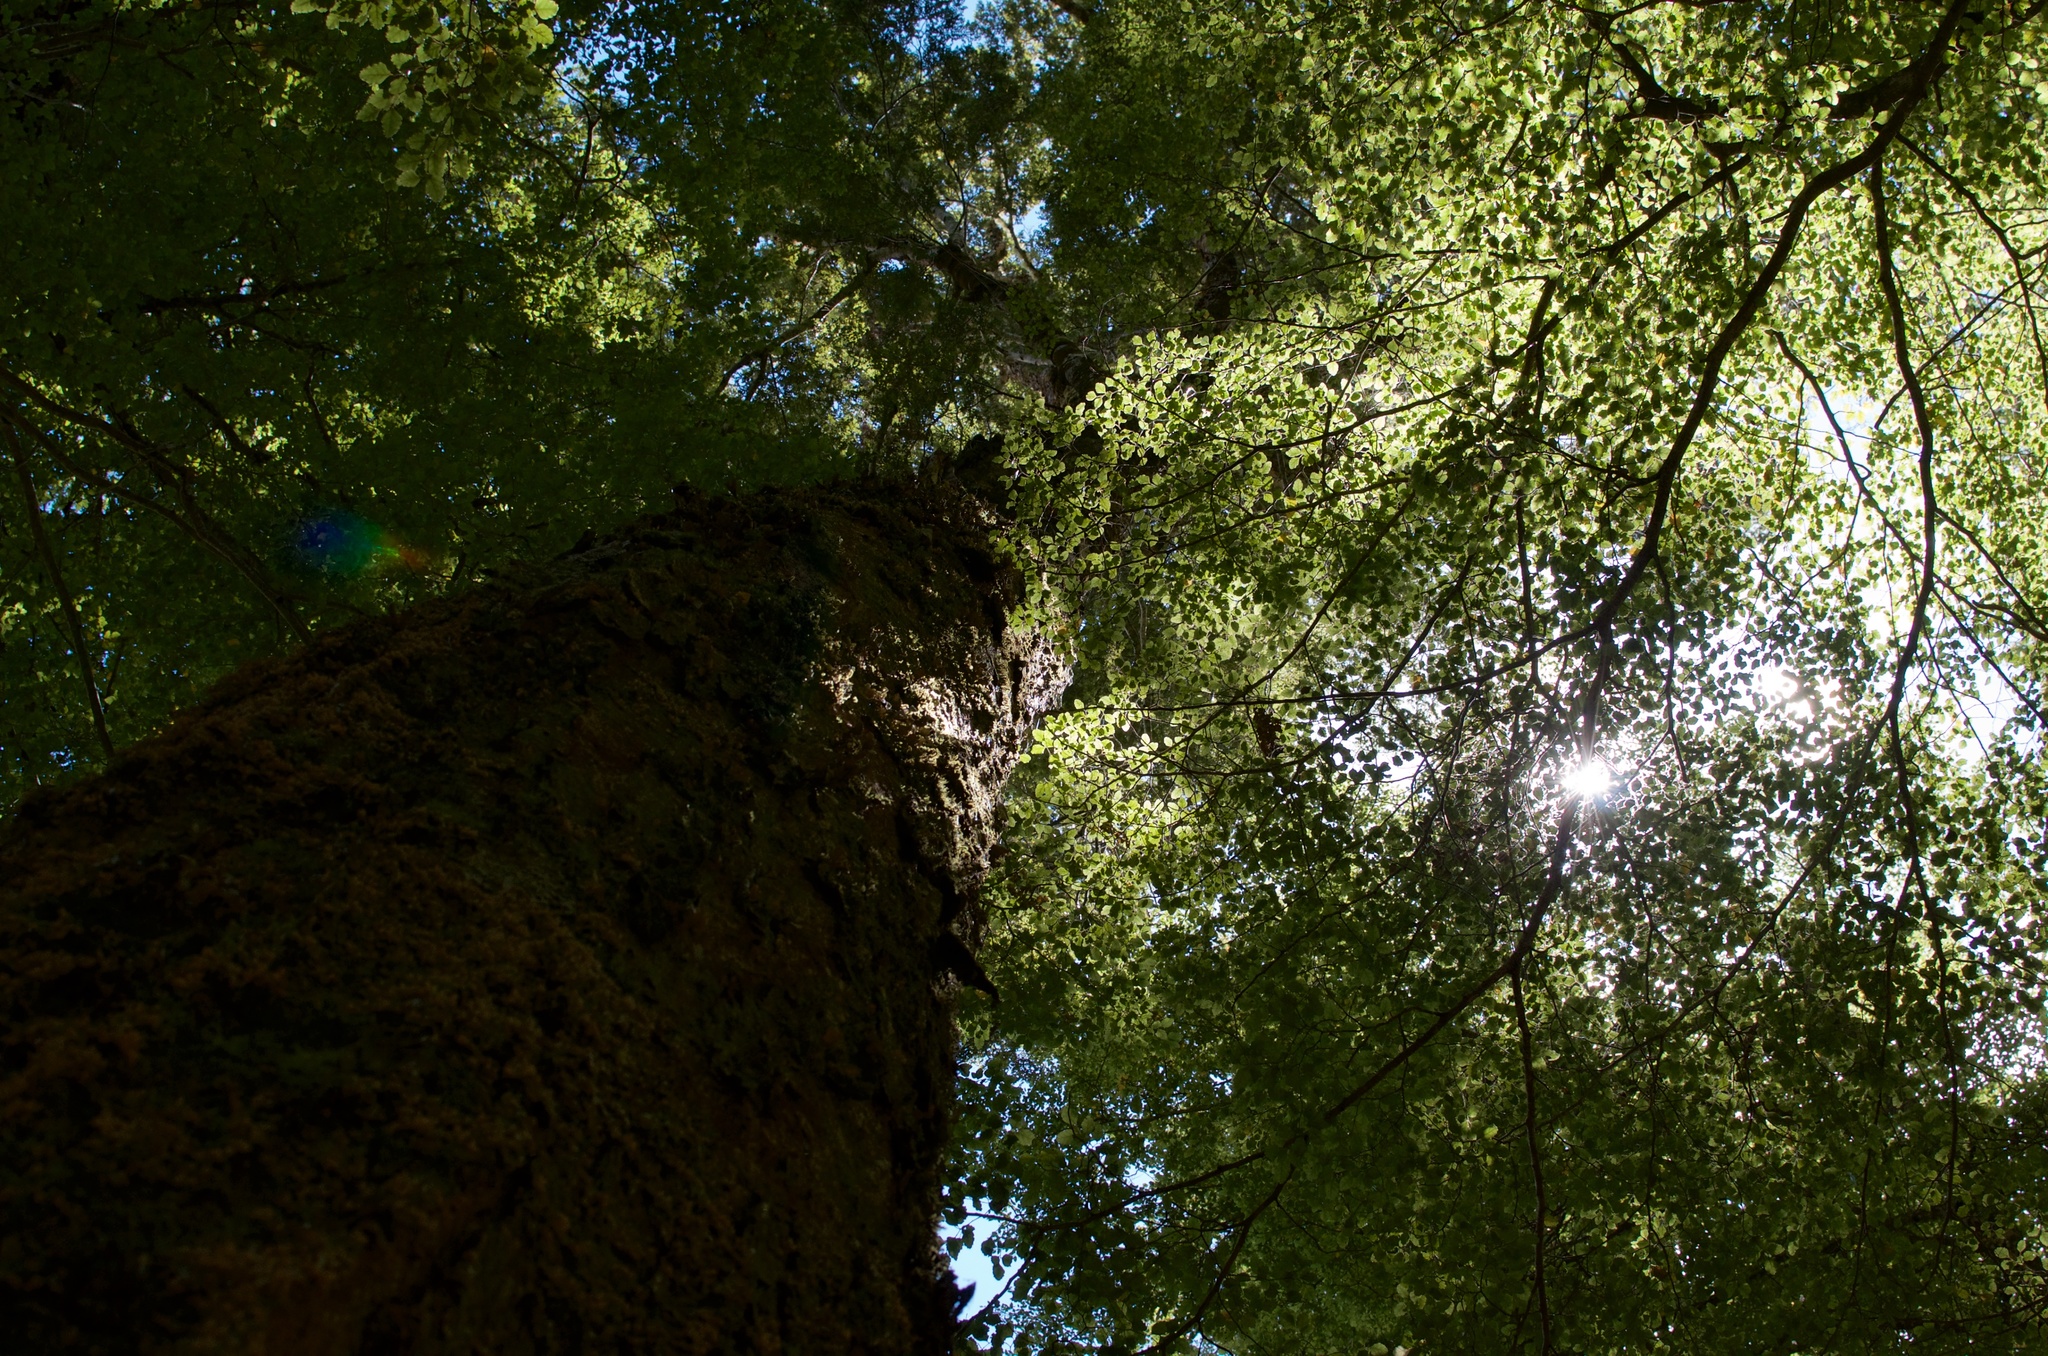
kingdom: Plantae
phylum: Tracheophyta
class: Magnoliopsida
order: Fagales
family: Nothofagaceae
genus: Nothofagus
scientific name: Nothofagus fusca
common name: Red beech
